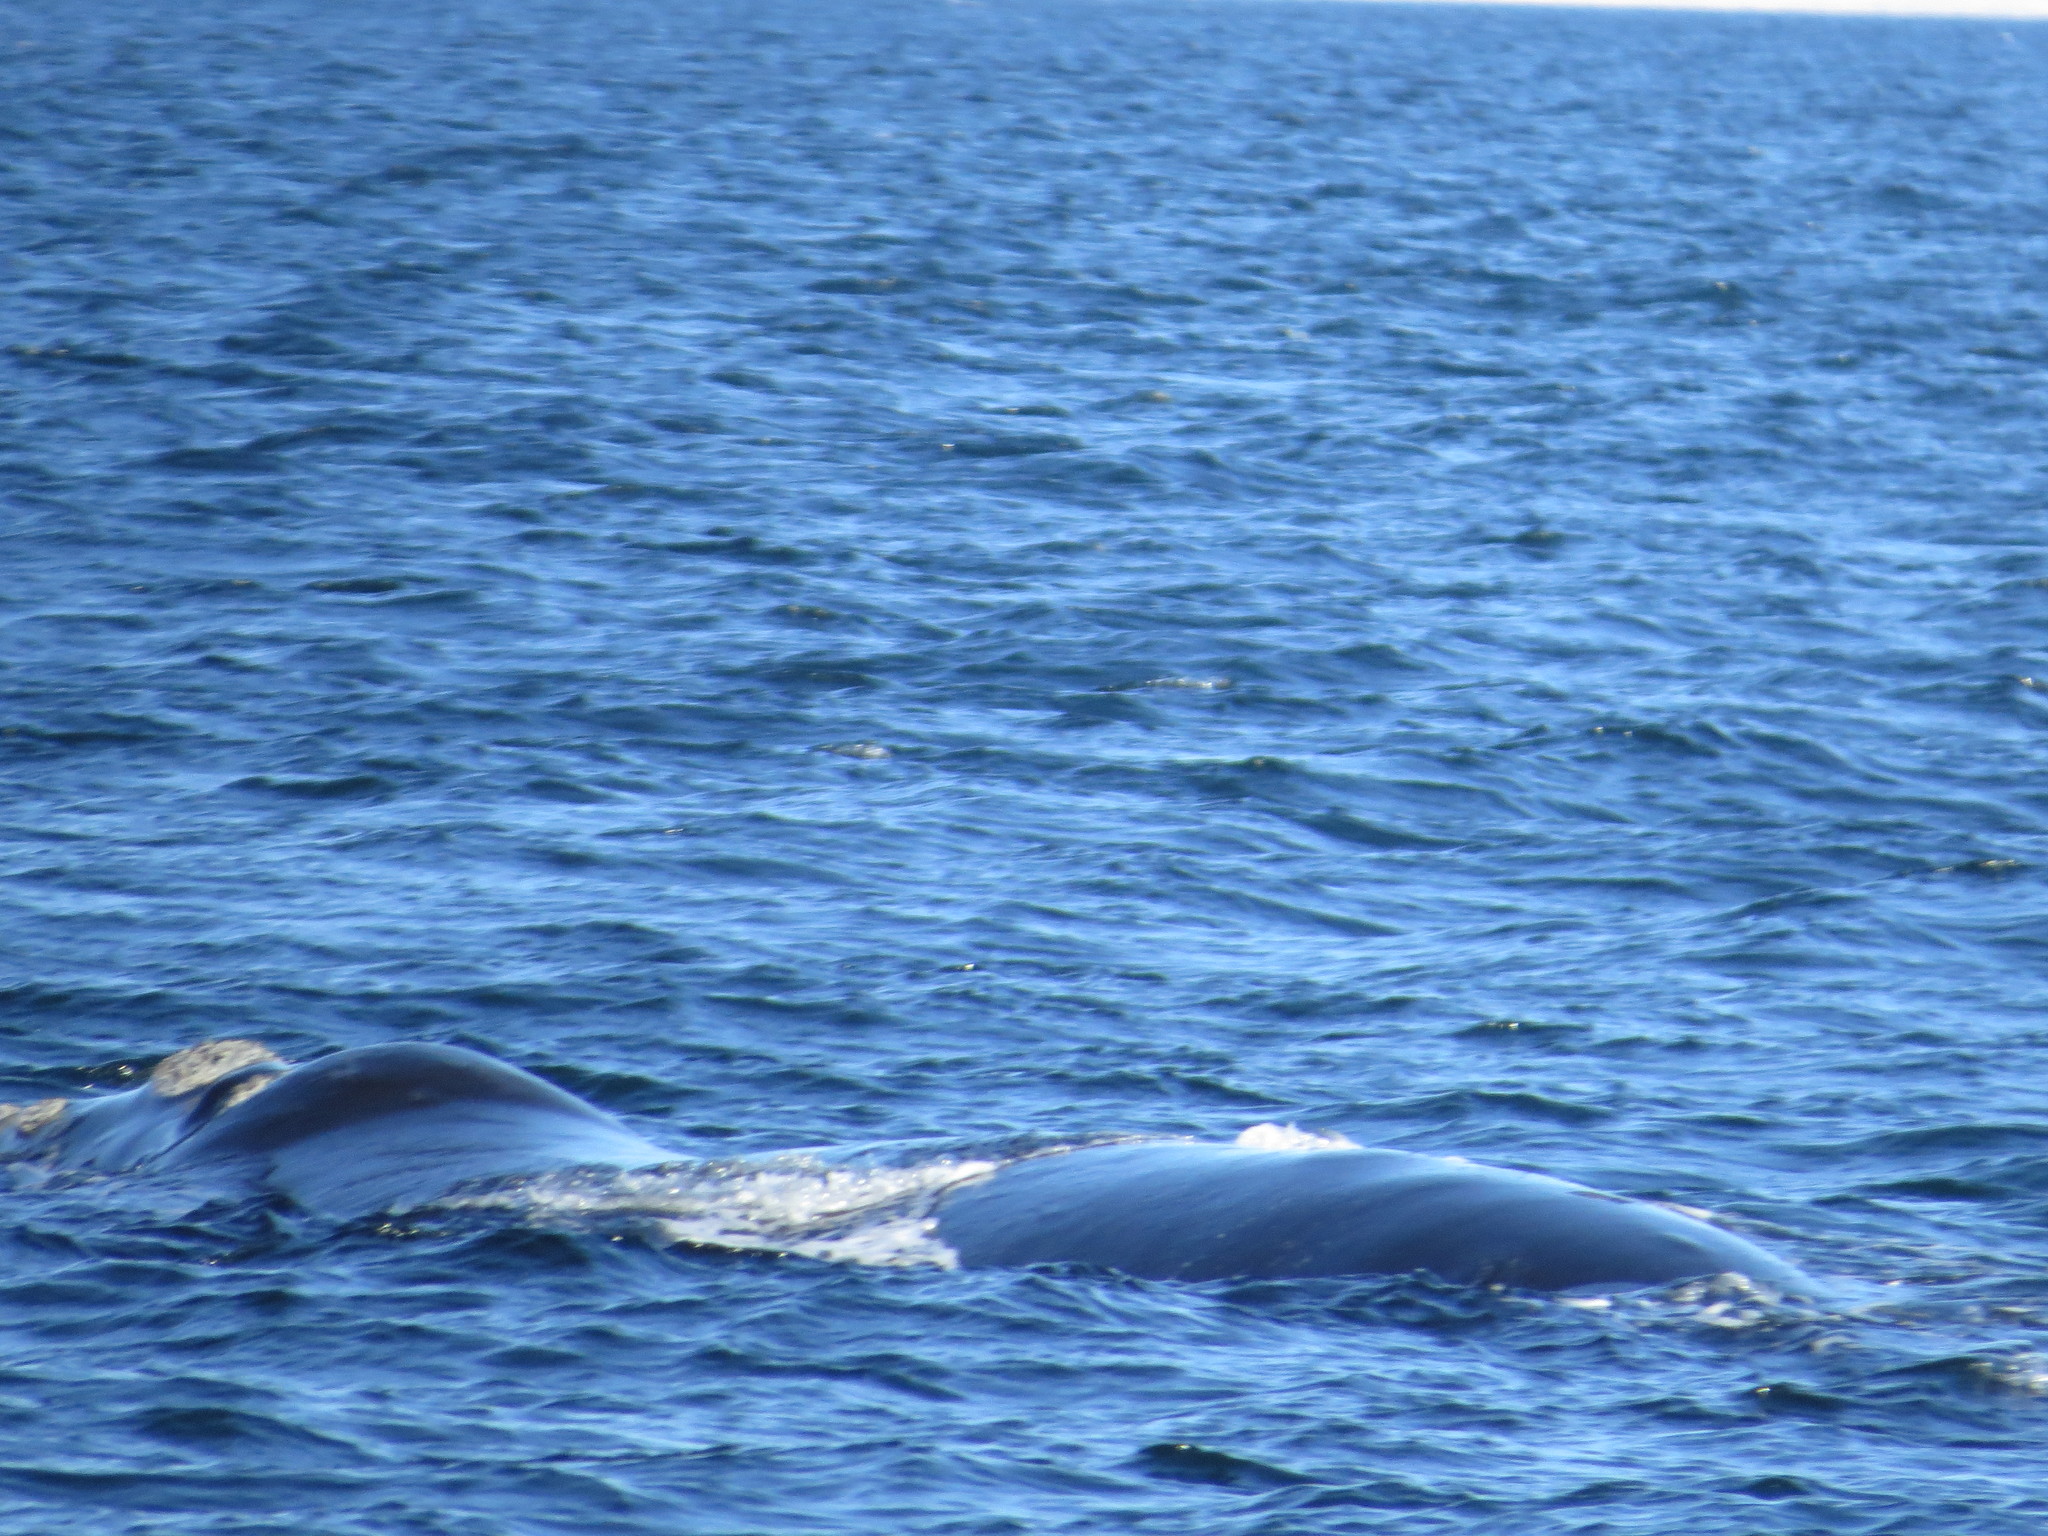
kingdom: Animalia
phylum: Chordata
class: Mammalia
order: Cetacea
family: Balaenidae
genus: Eubalaena
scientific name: Eubalaena australis
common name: Southern right whale
